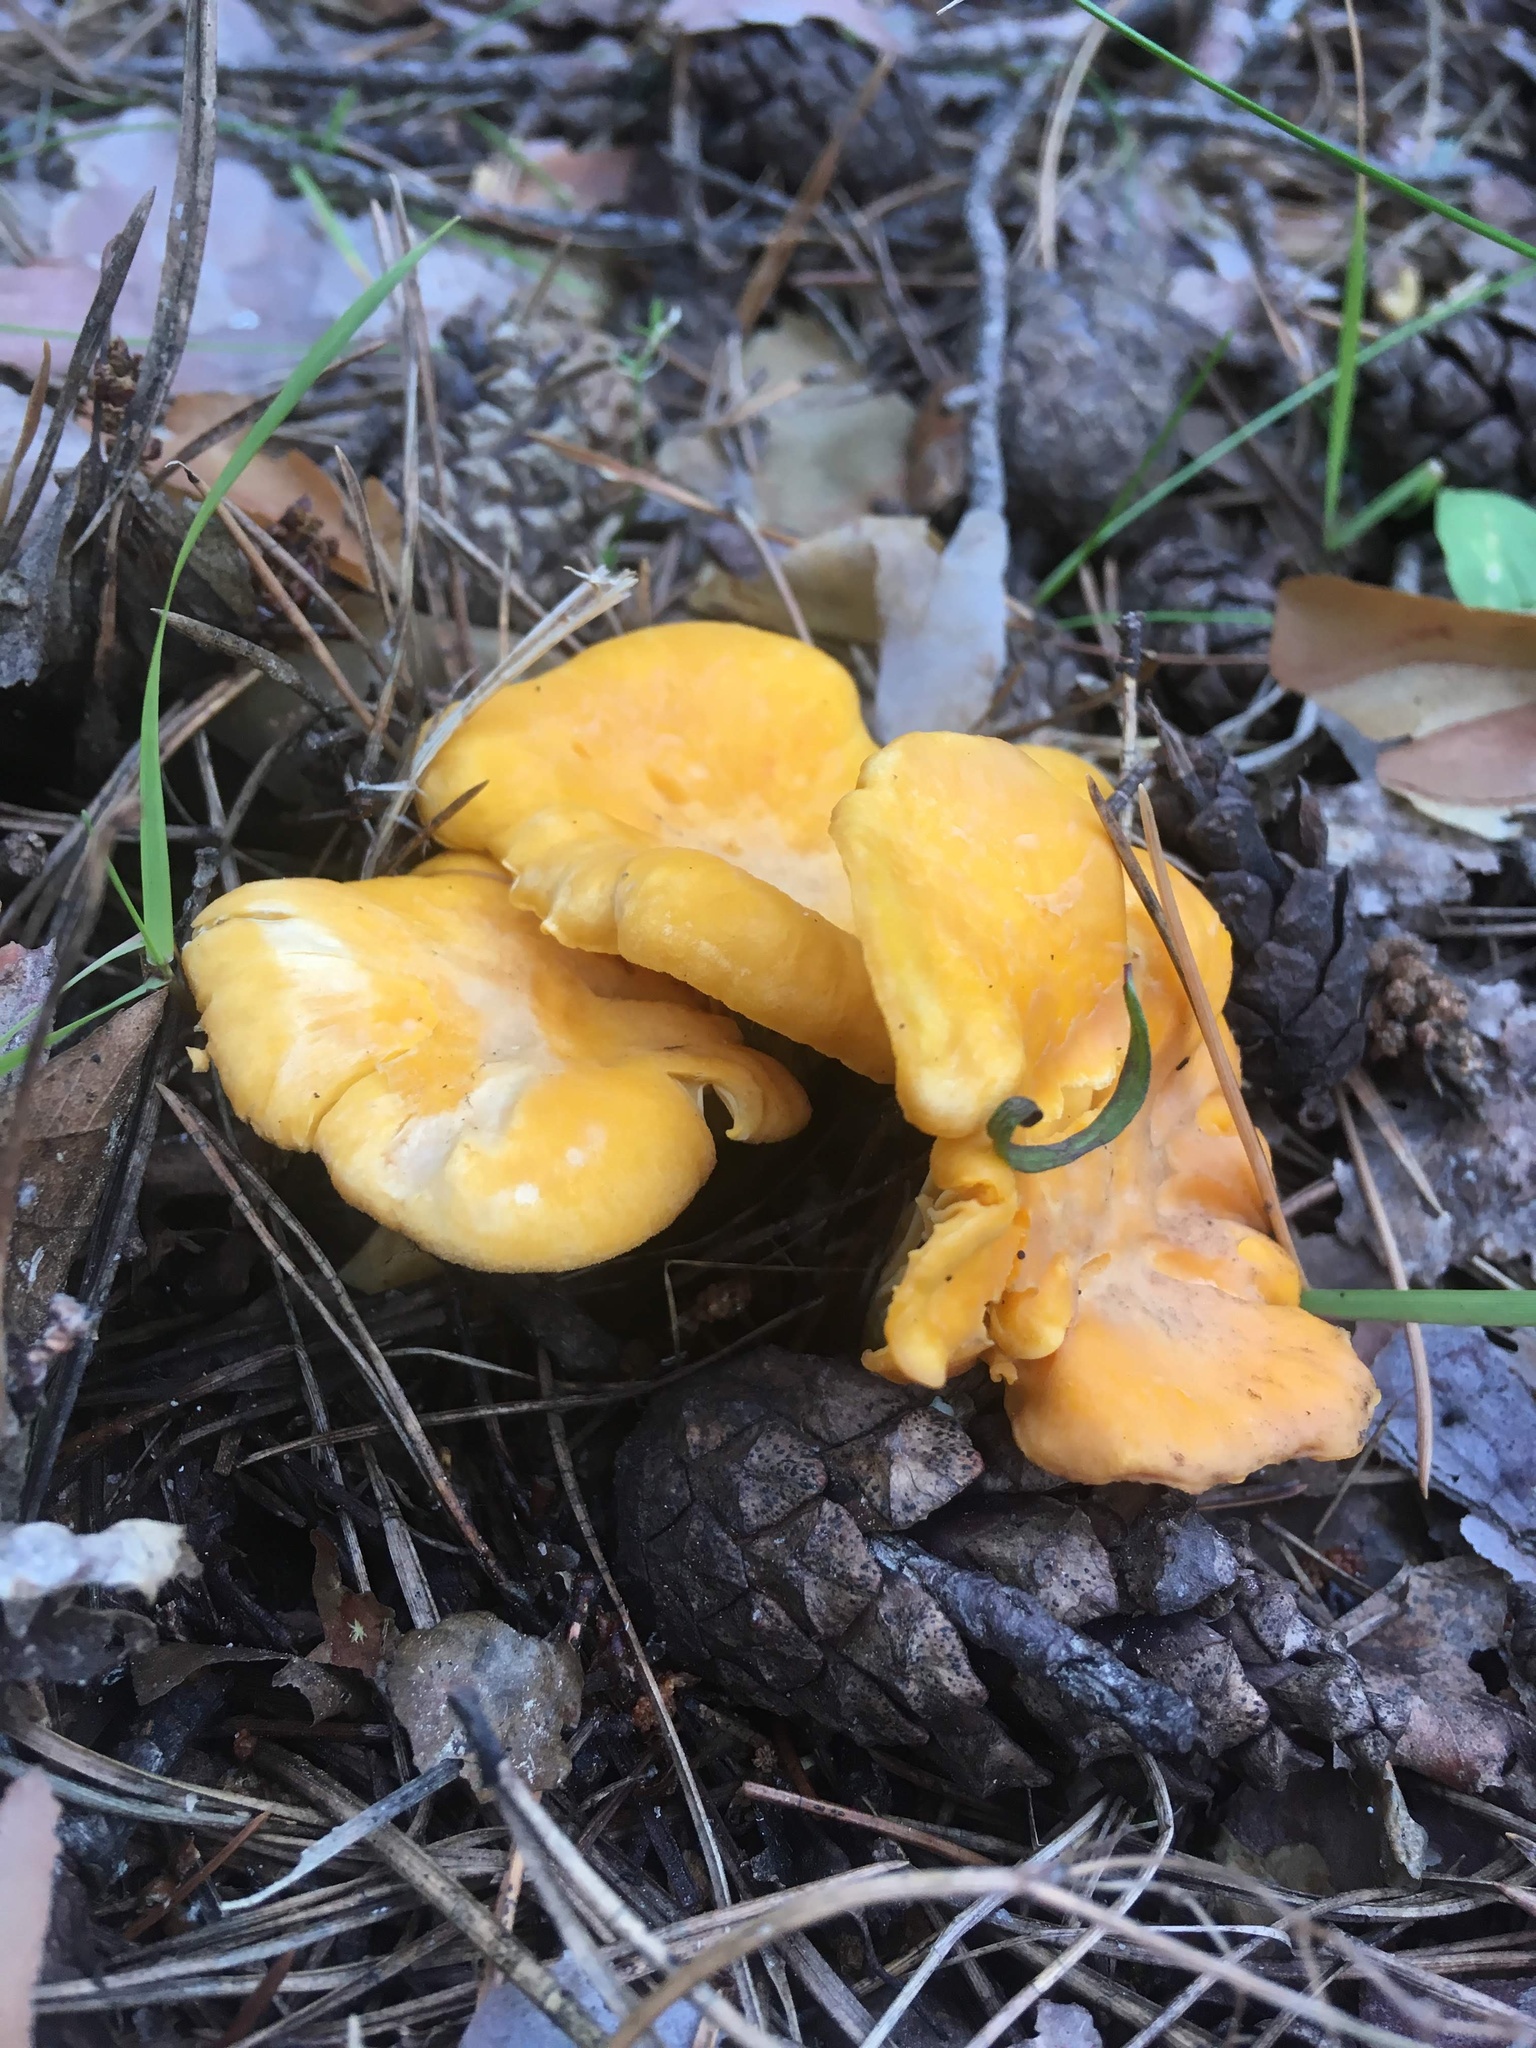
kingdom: Fungi
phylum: Basidiomycota
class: Agaricomycetes
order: Cantharellales
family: Hydnaceae
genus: Cantharellus
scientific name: Cantharellus cibarius
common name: Chanterelle
